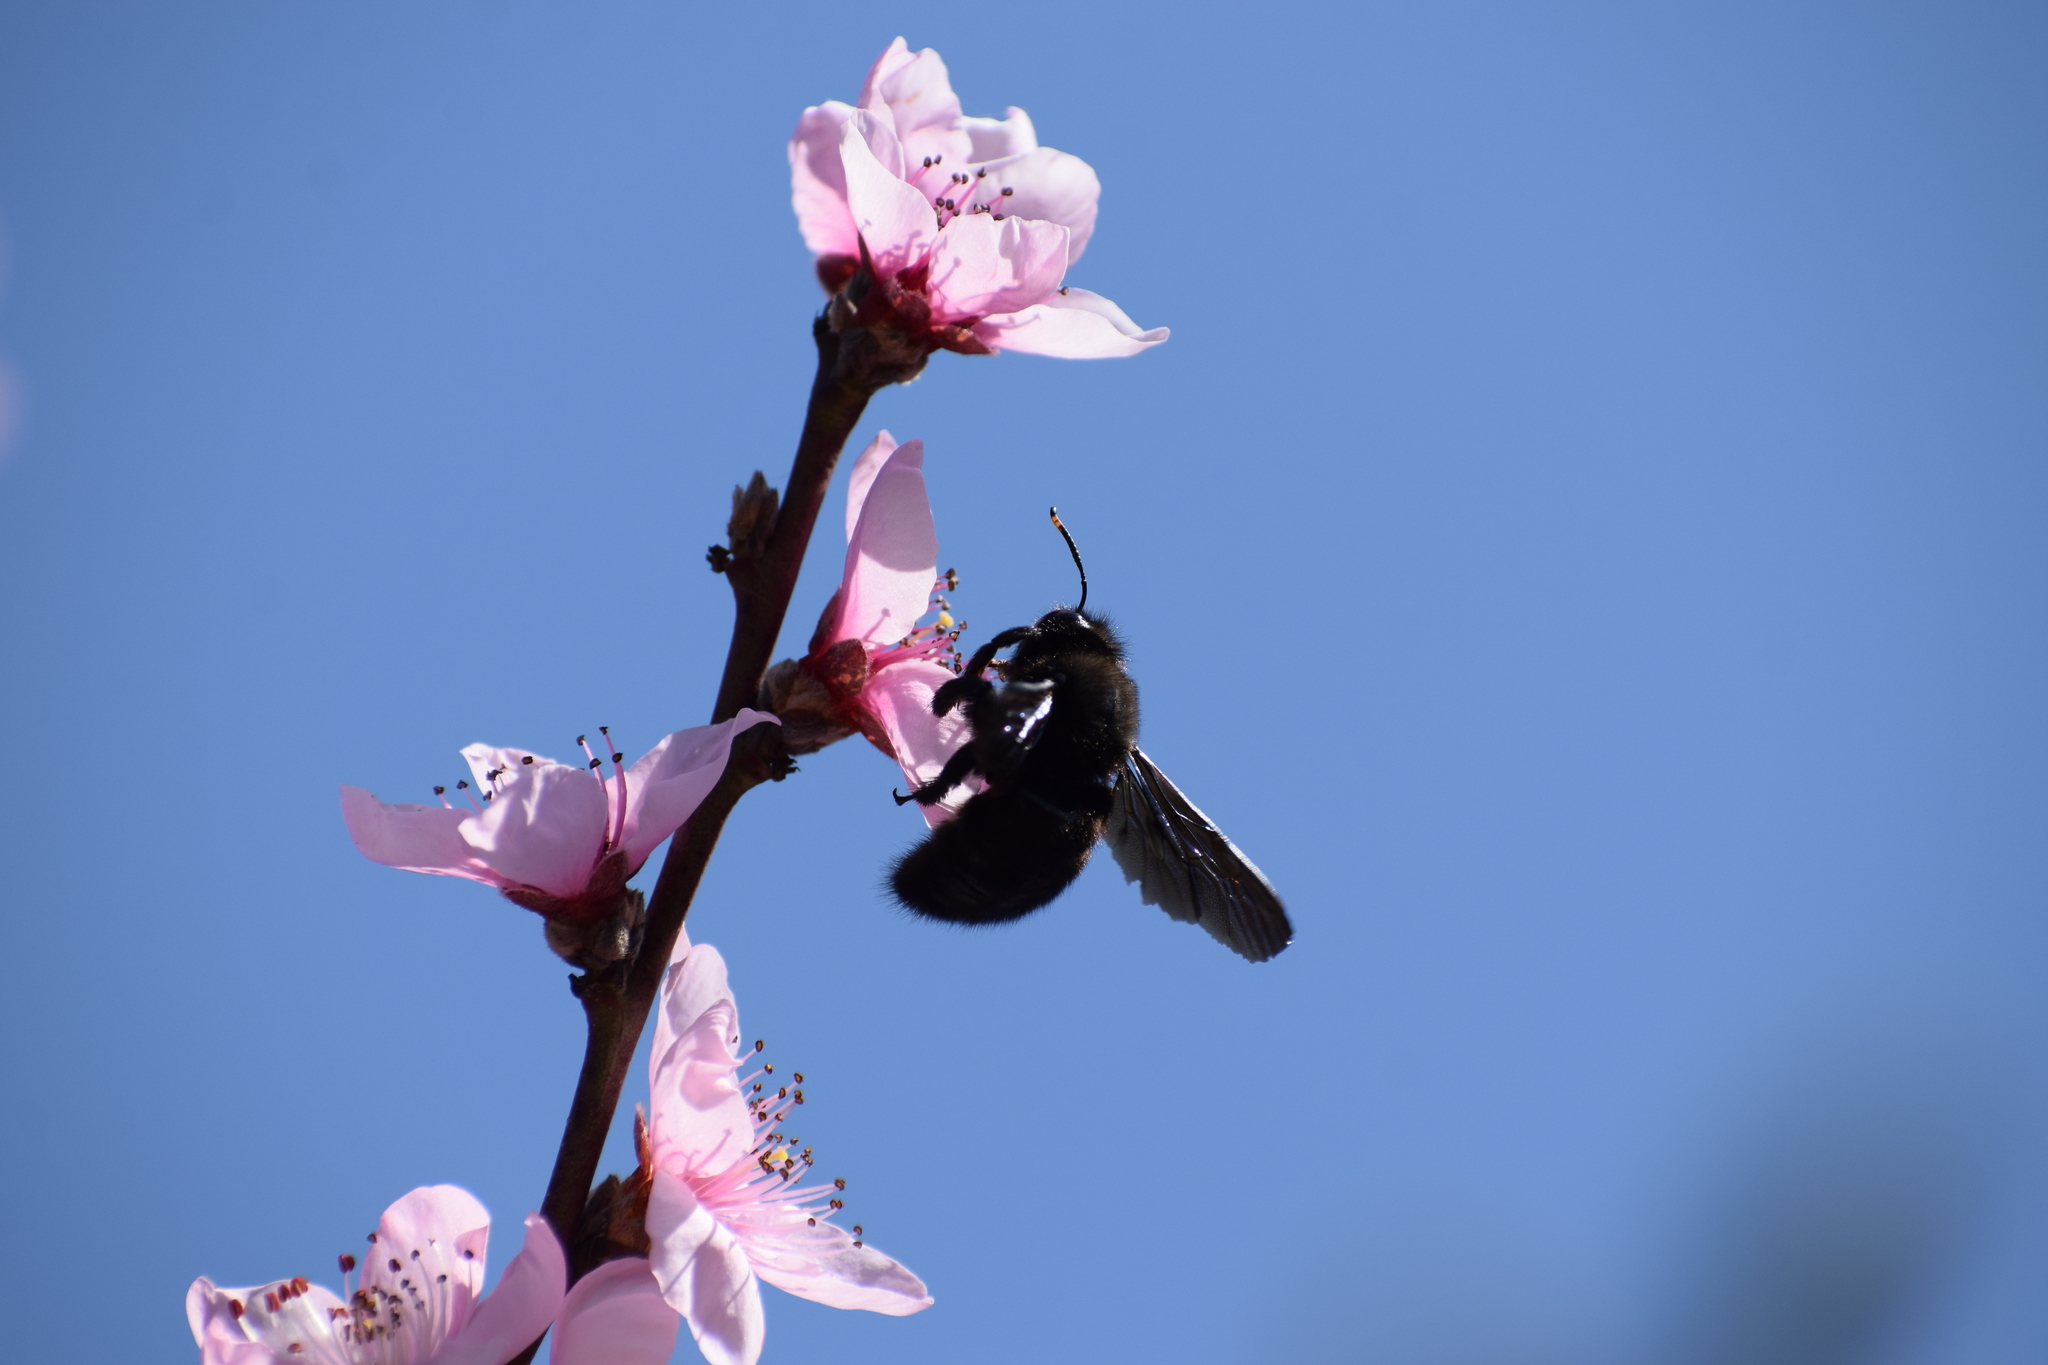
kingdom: Animalia
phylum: Arthropoda
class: Insecta
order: Hymenoptera
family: Apidae
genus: Xylocopa
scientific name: Xylocopa violacea
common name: Violet carpenter bee
